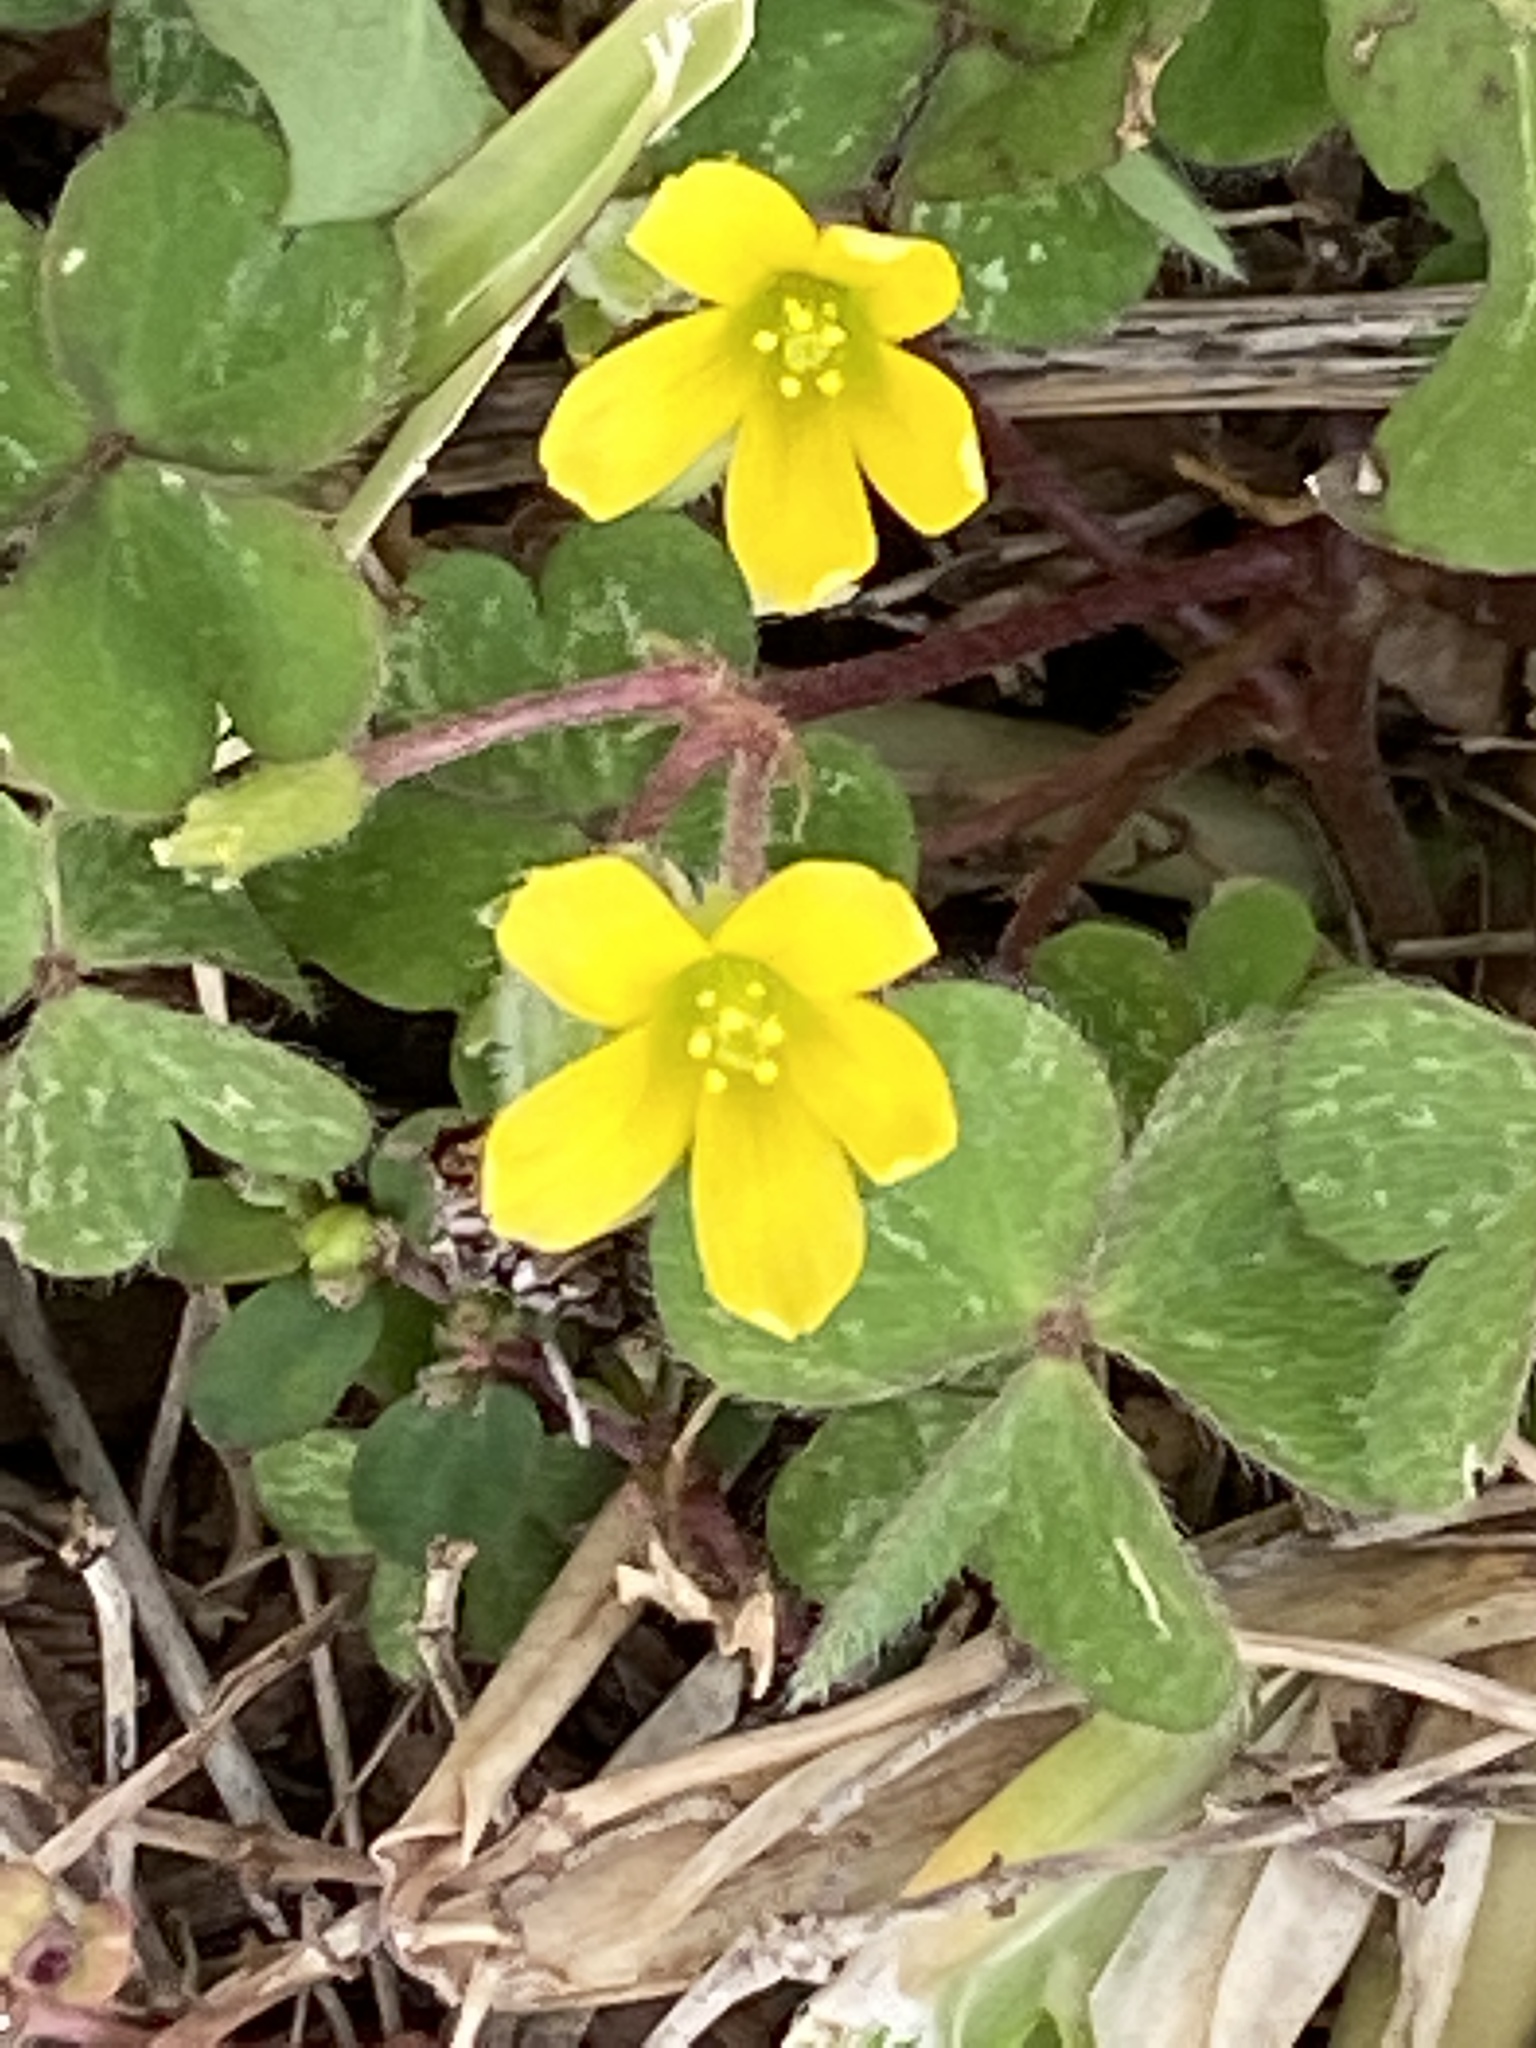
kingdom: Plantae
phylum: Tracheophyta
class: Magnoliopsida
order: Oxalidales
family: Oxalidaceae
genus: Oxalis
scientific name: Oxalis corniculata
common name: Procumbent yellow-sorrel
